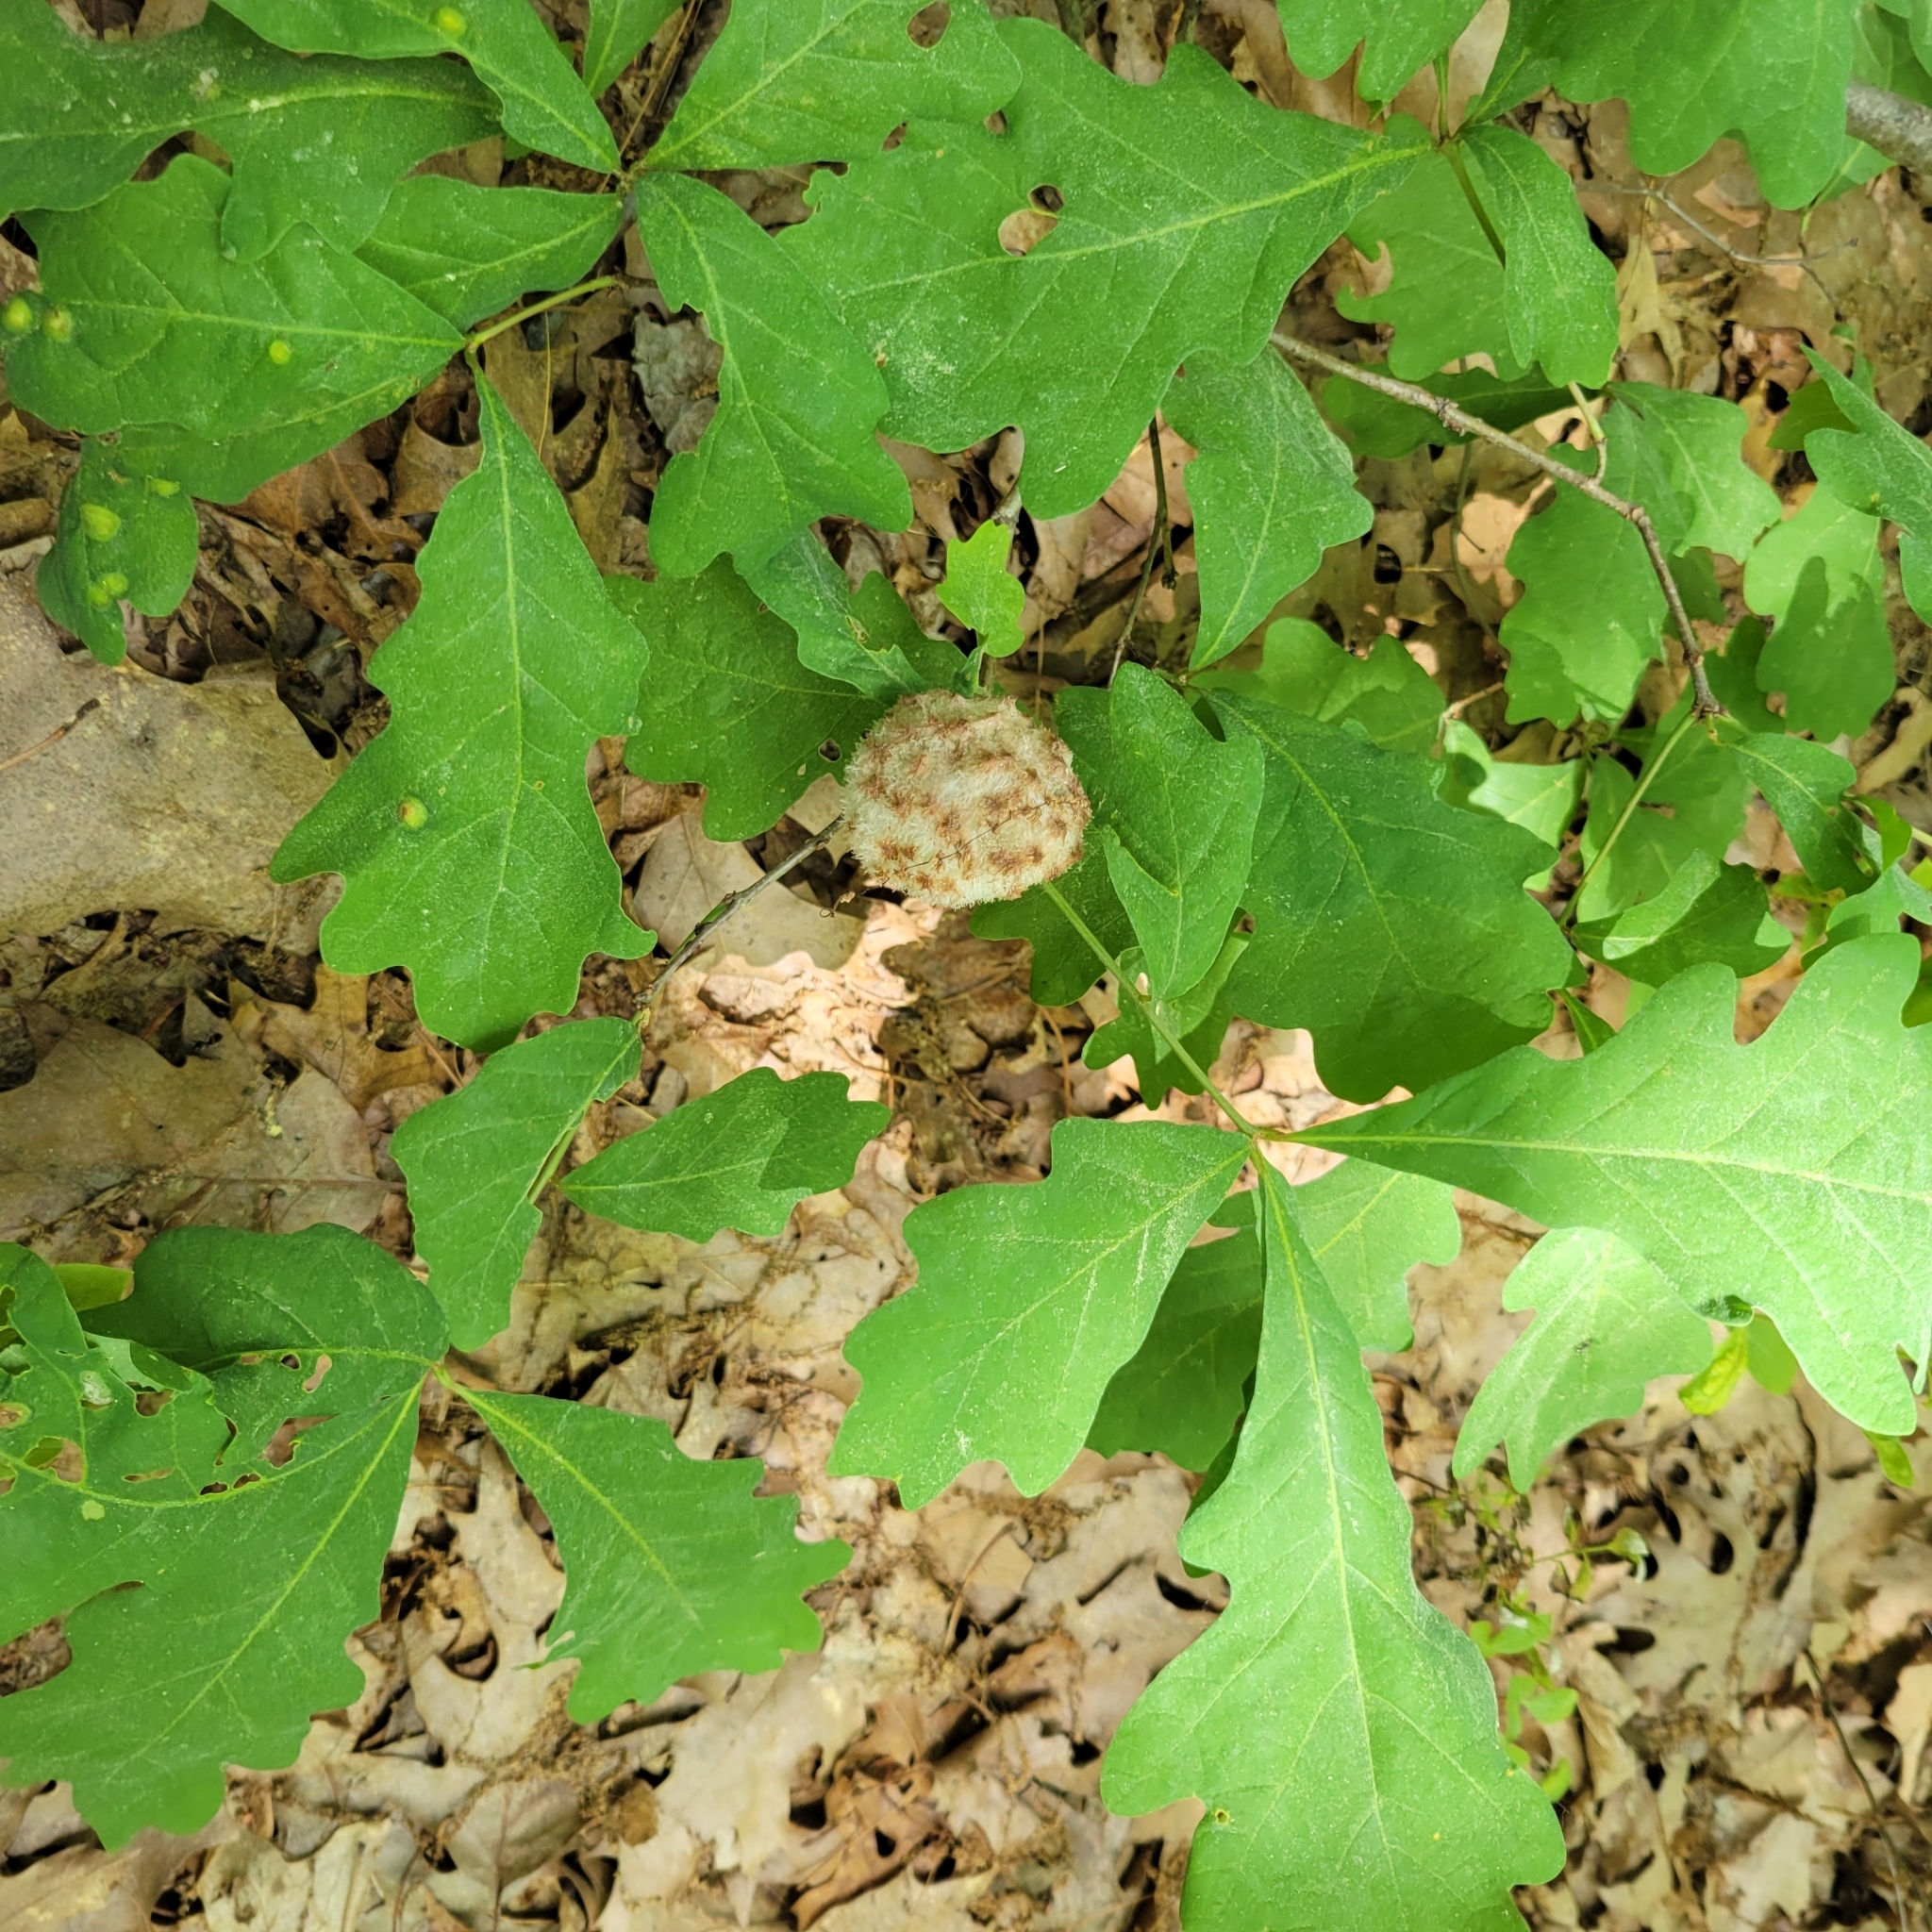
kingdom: Animalia
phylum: Arthropoda
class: Insecta
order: Hymenoptera
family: Cynipidae
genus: Callirhytis
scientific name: Callirhytis
